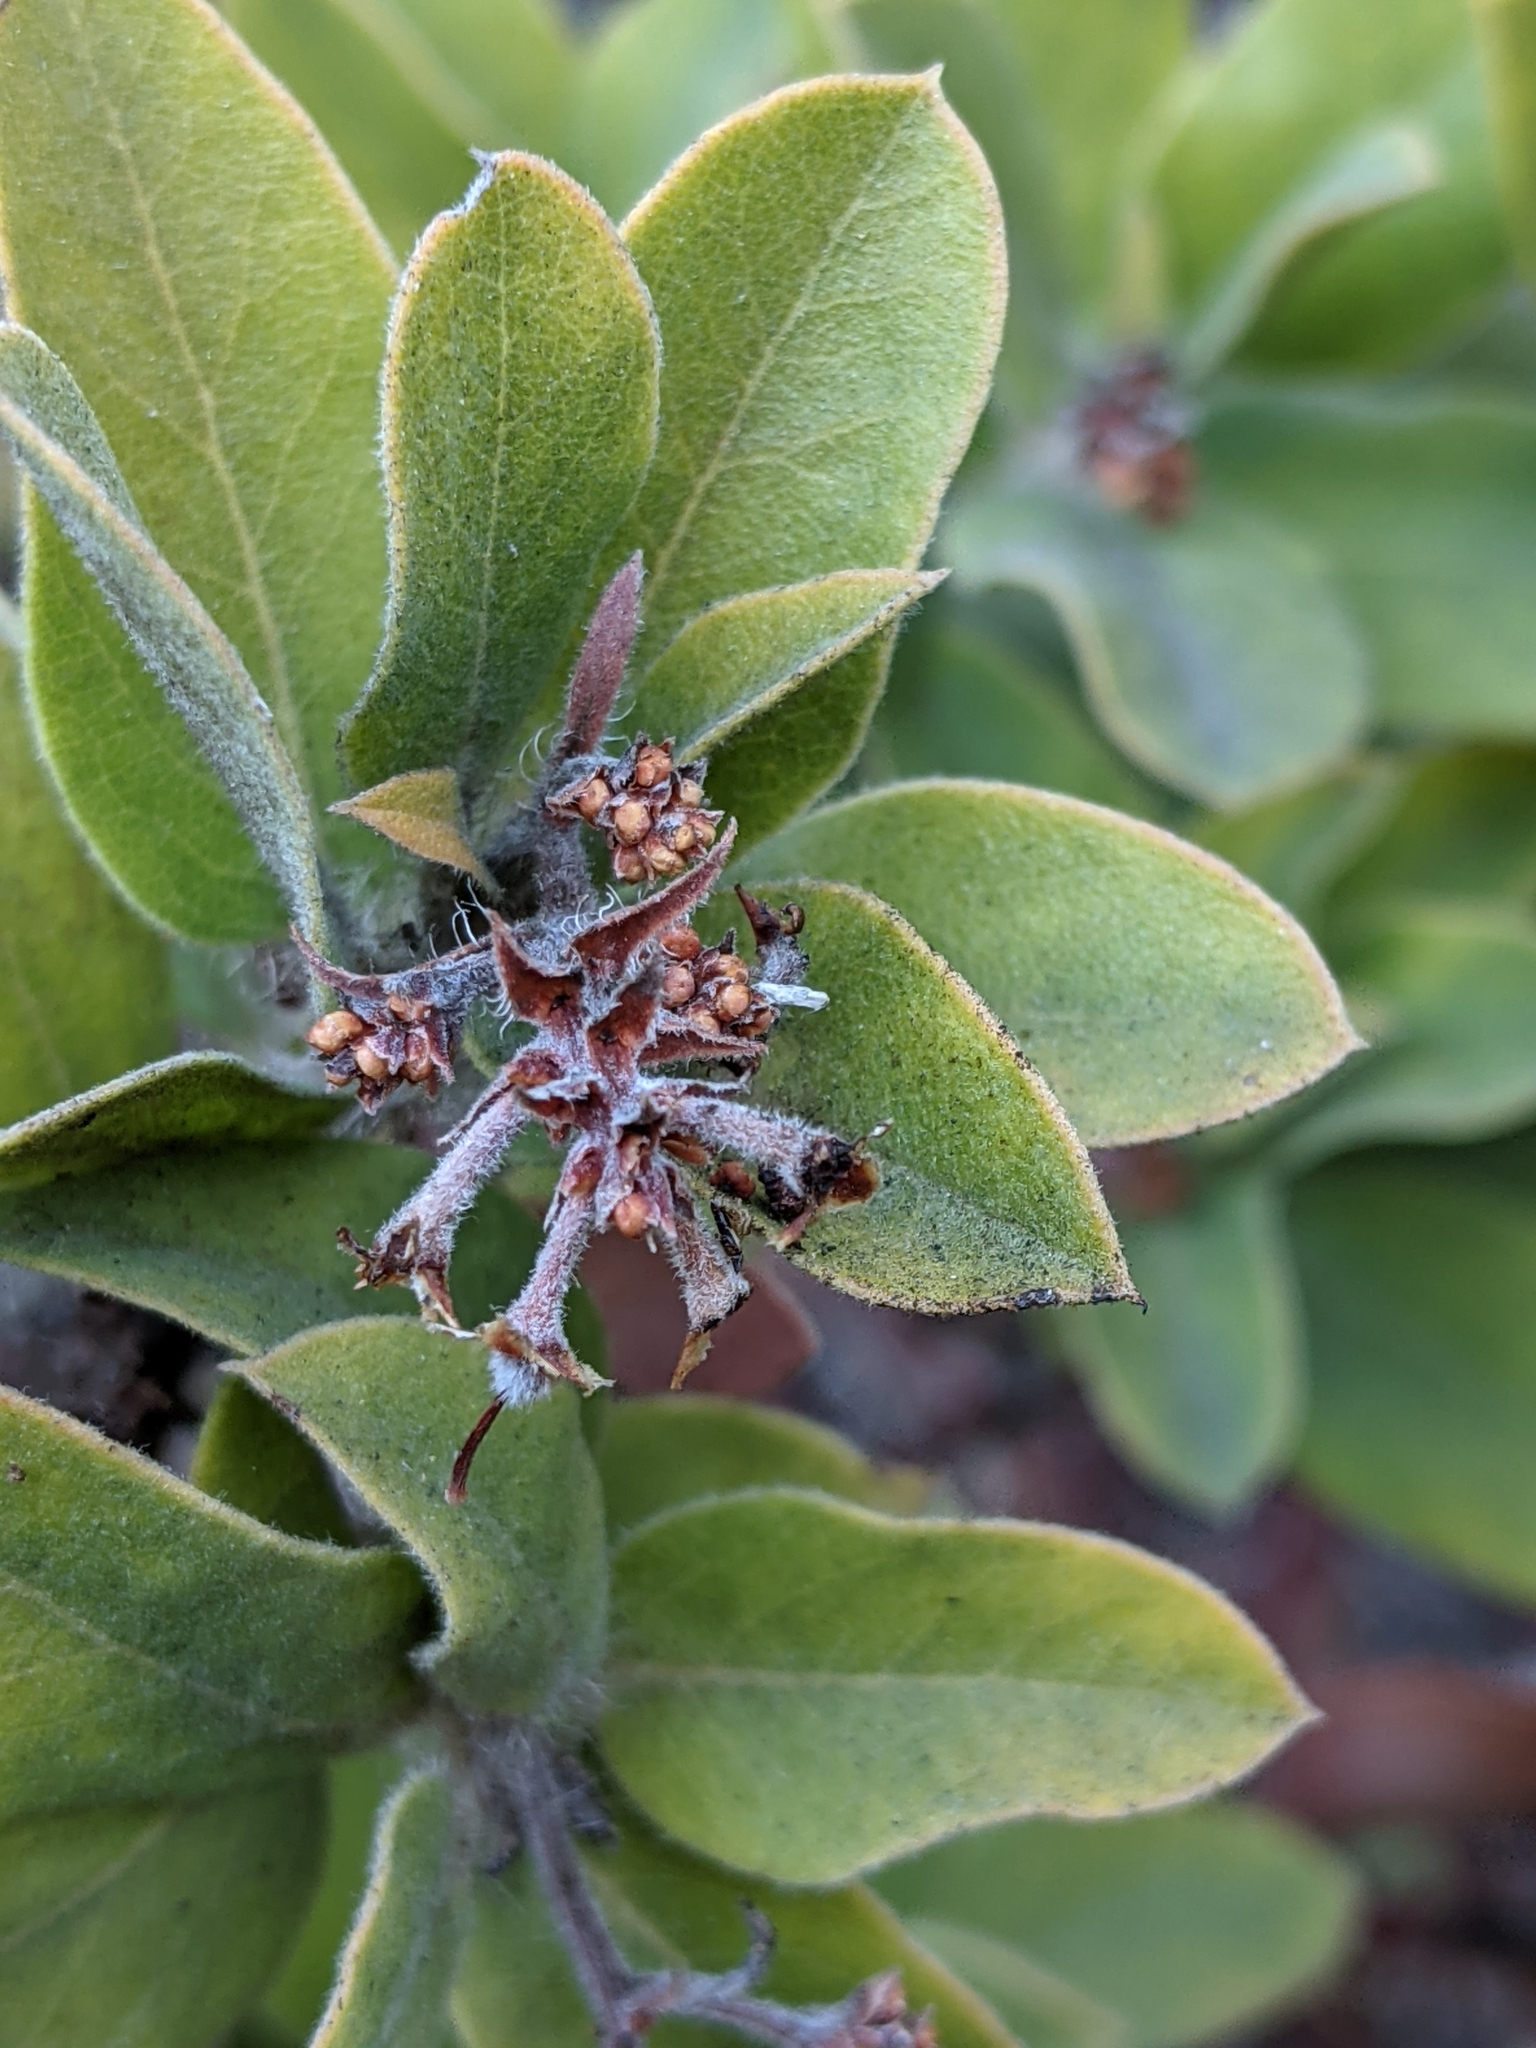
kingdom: Plantae
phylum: Tracheophyta
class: Magnoliopsida
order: Ericales
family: Ericaceae
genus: Arctostaphylos
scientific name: Arctostaphylos crustacea
